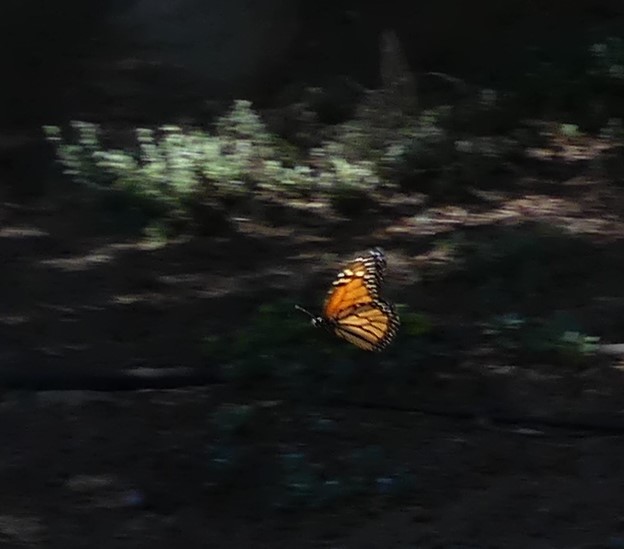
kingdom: Animalia
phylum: Arthropoda
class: Insecta
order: Lepidoptera
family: Nymphalidae
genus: Danaus
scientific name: Danaus plexippus
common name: Monarch
